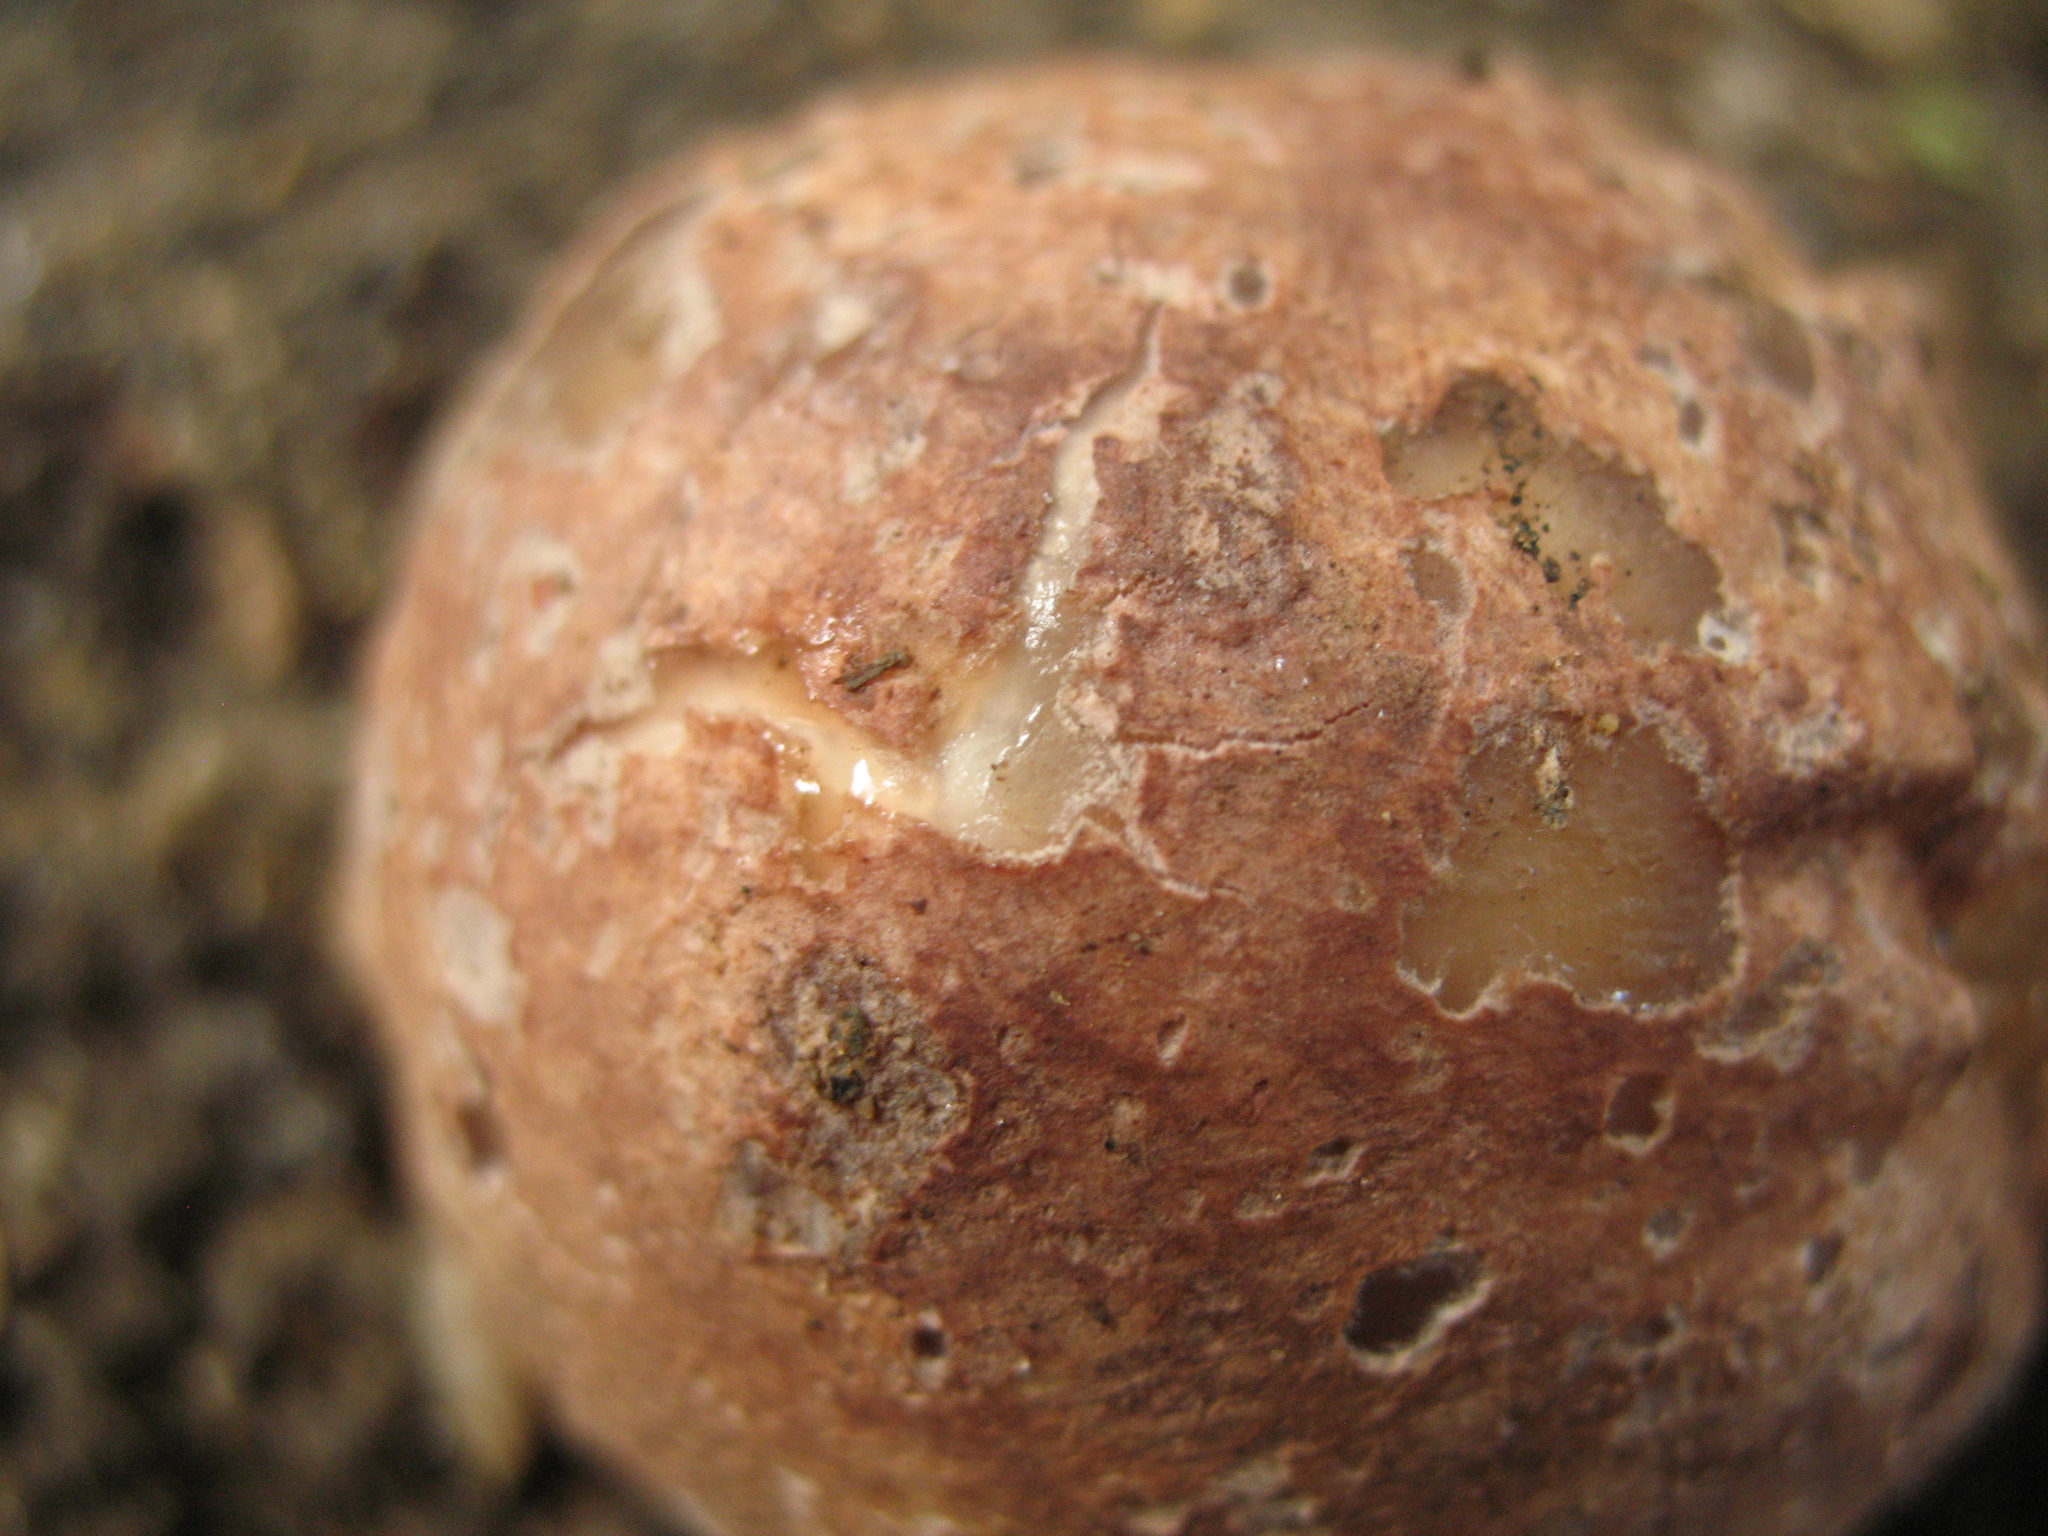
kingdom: Fungi
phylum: Basidiomycota
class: Agaricomycetes
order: Phallales
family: Phallaceae
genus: Phallus
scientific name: Phallus hadriani
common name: Sand stinkhorn
